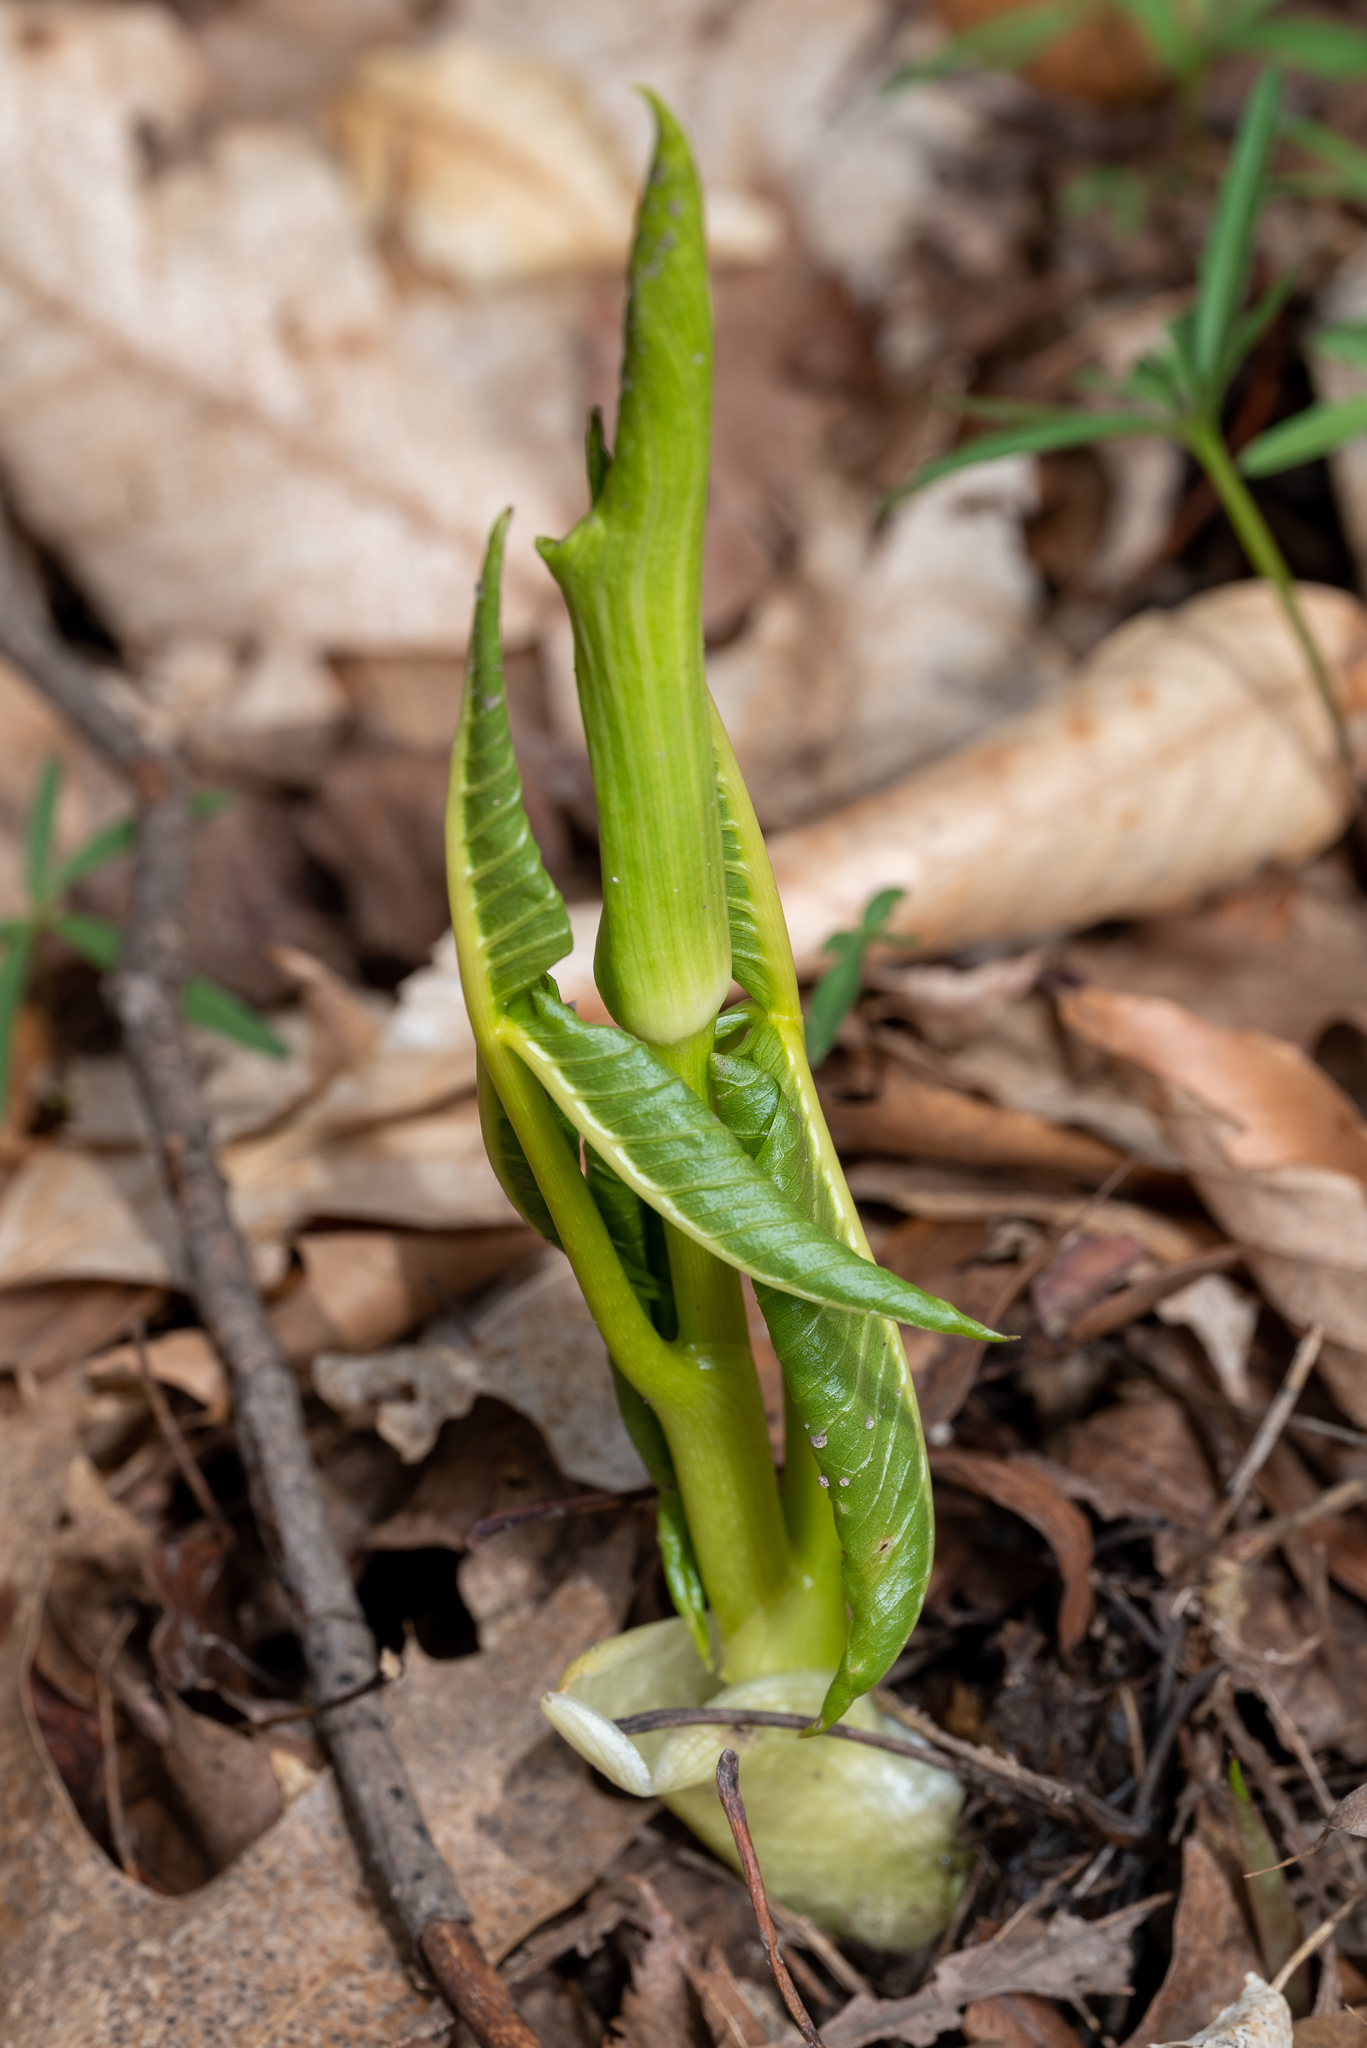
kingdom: Plantae
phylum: Tracheophyta
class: Liliopsida
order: Alismatales
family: Araceae
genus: Arisaema
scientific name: Arisaema triphyllum
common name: Jack-in-the-pulpit
